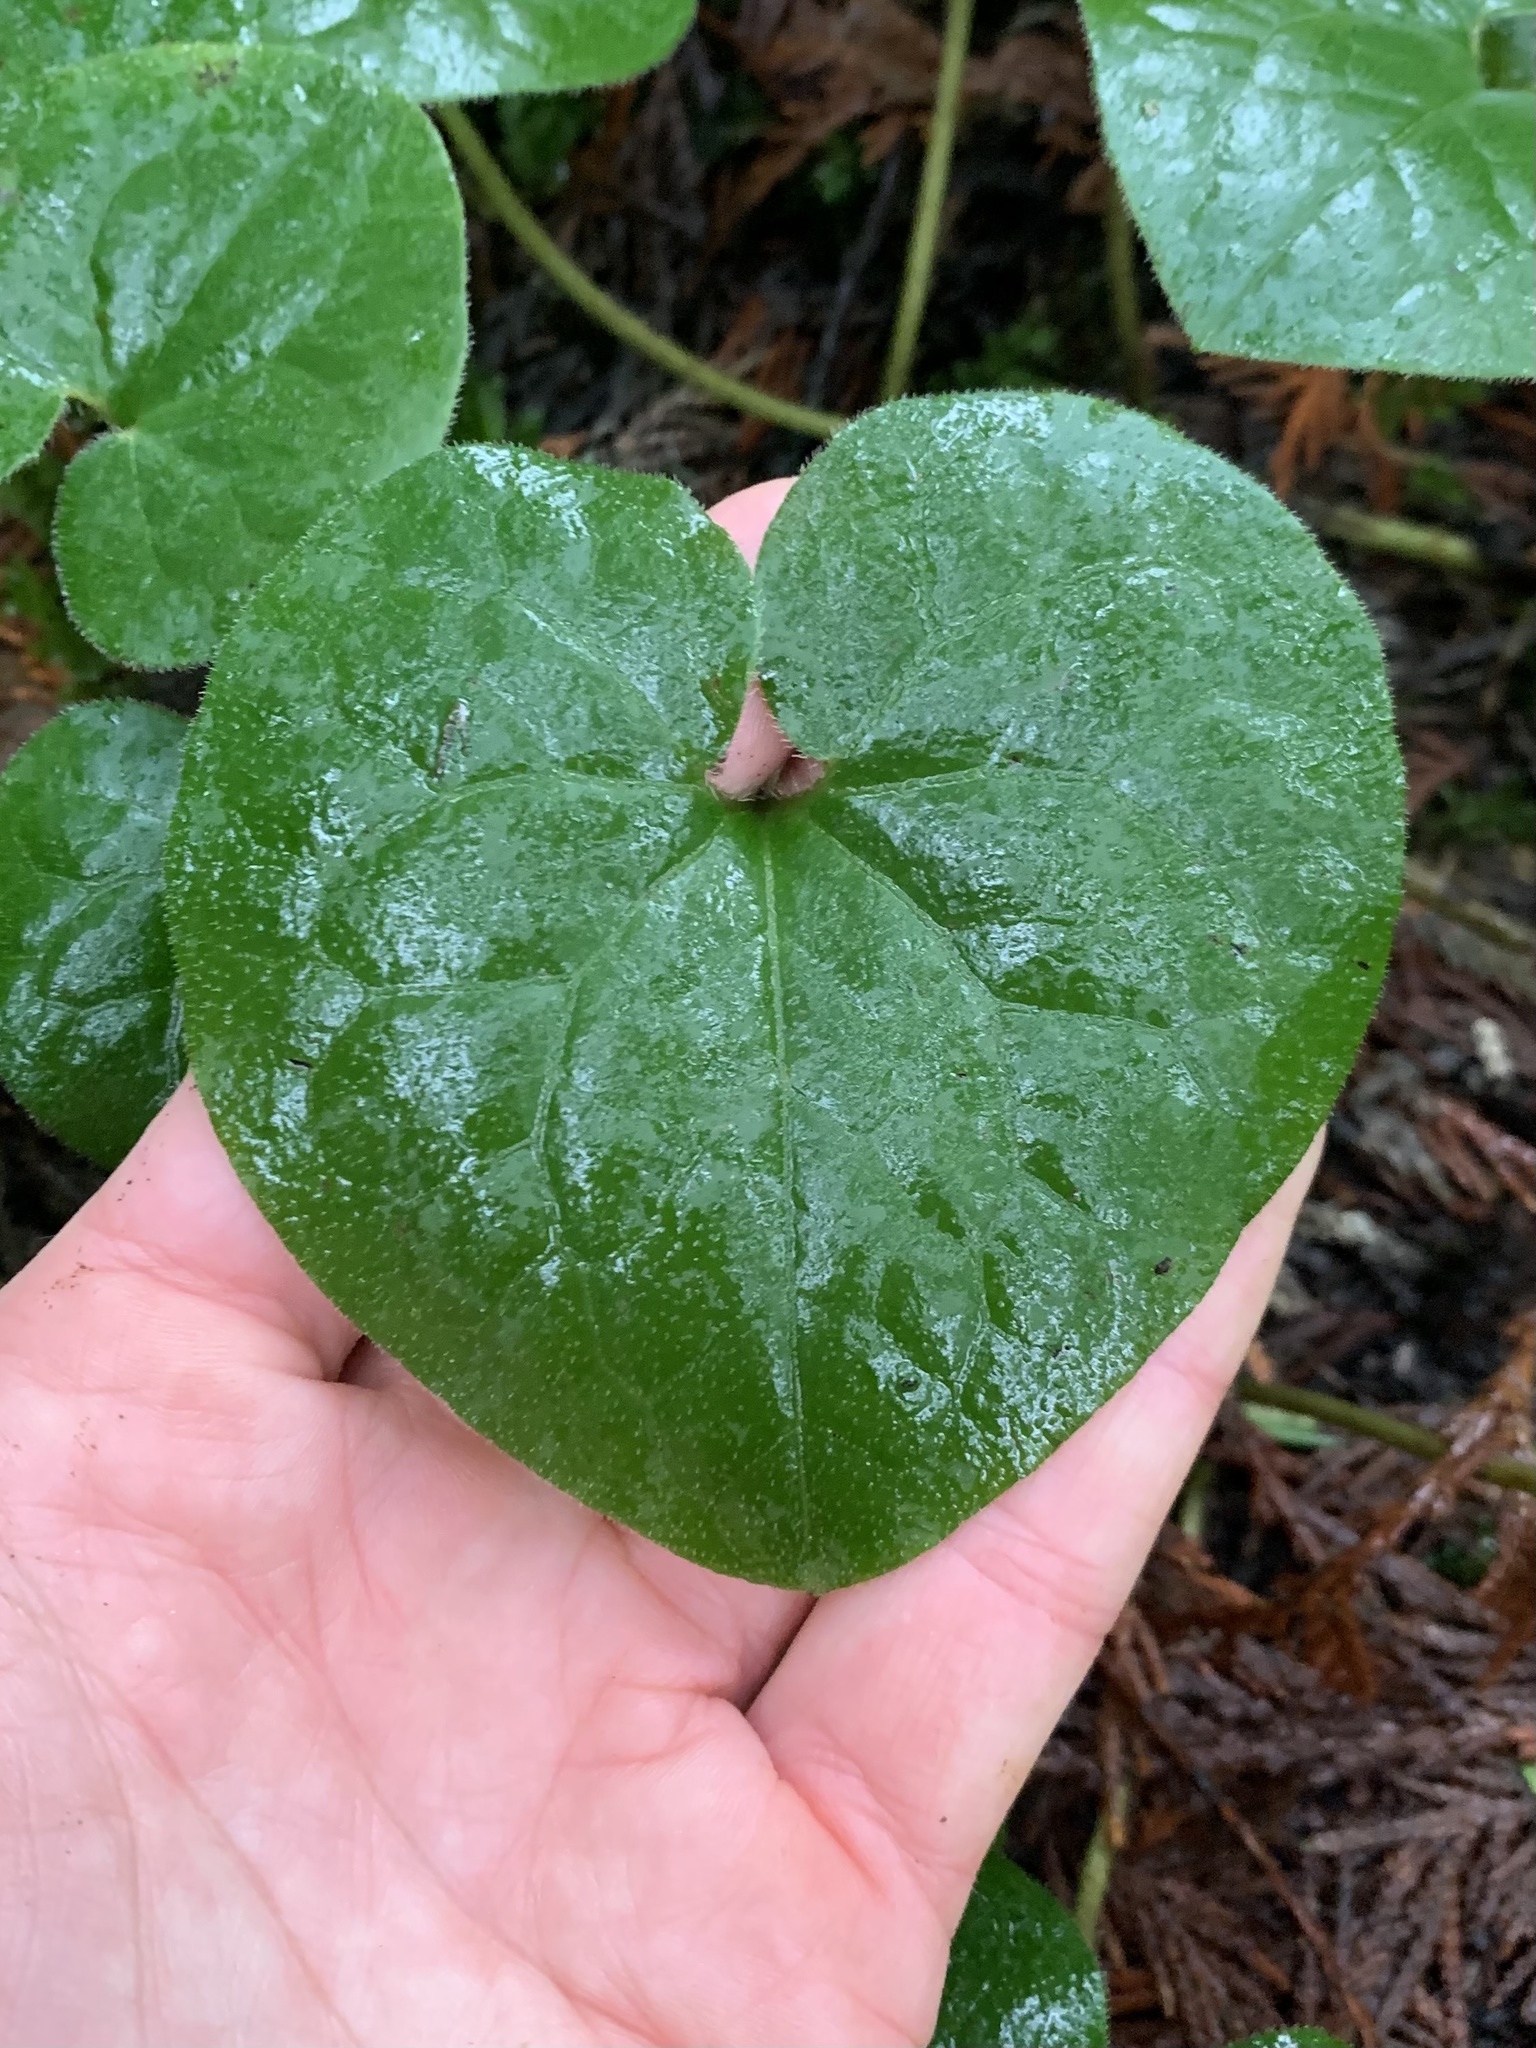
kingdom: Plantae
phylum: Tracheophyta
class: Magnoliopsida
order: Piperales
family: Aristolochiaceae
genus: Asarum
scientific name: Asarum caudatum
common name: Wild ginger
